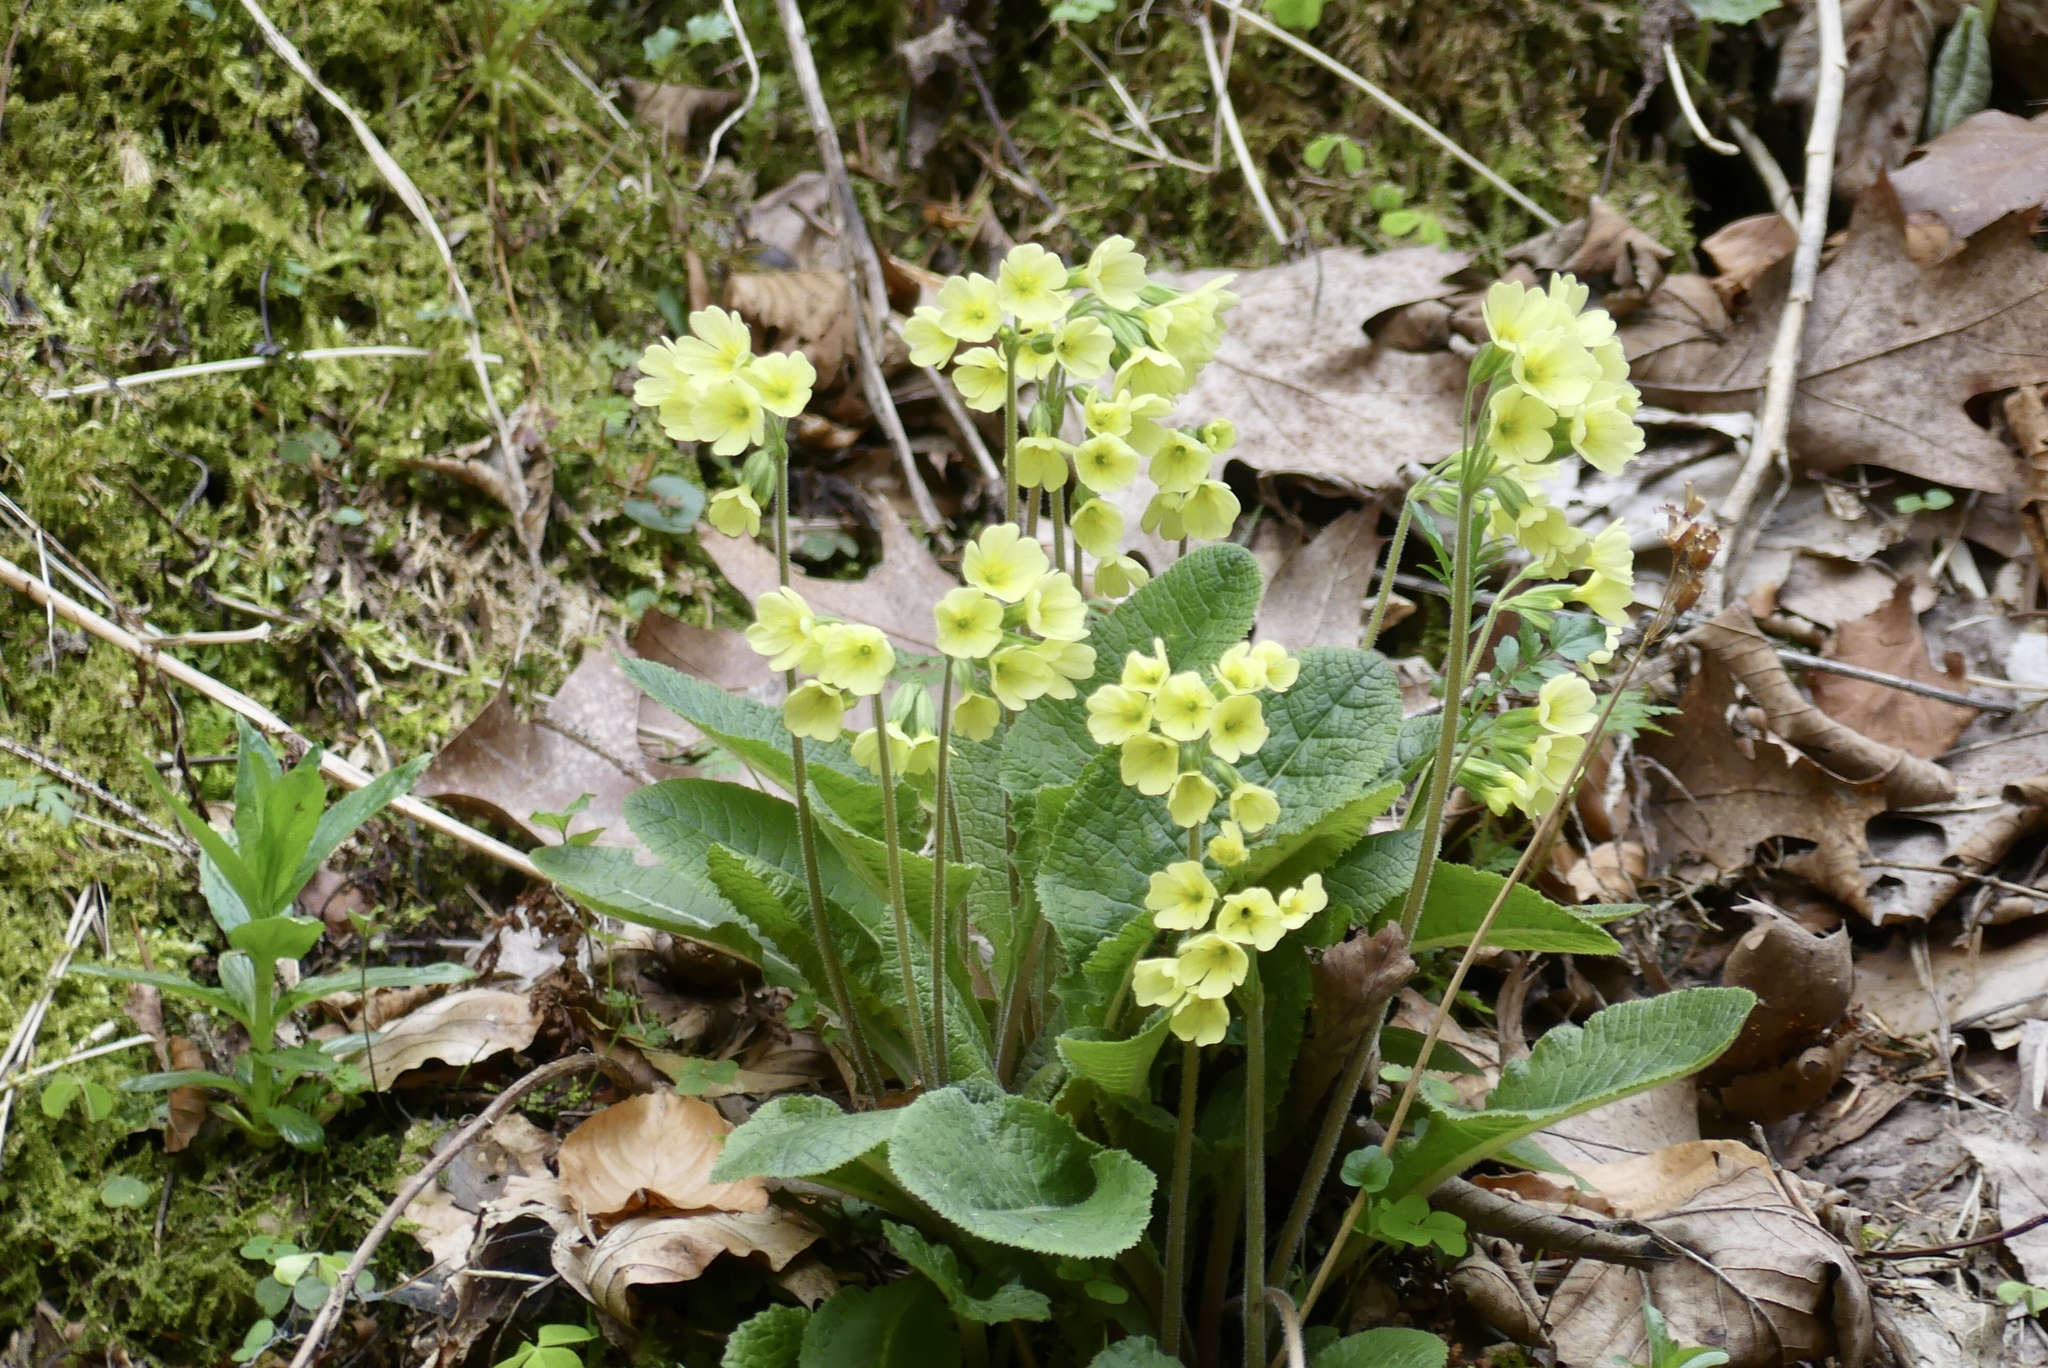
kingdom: Plantae
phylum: Tracheophyta
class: Magnoliopsida
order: Ericales
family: Primulaceae
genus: Primula
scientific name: Primula elatior
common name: Oxlip
